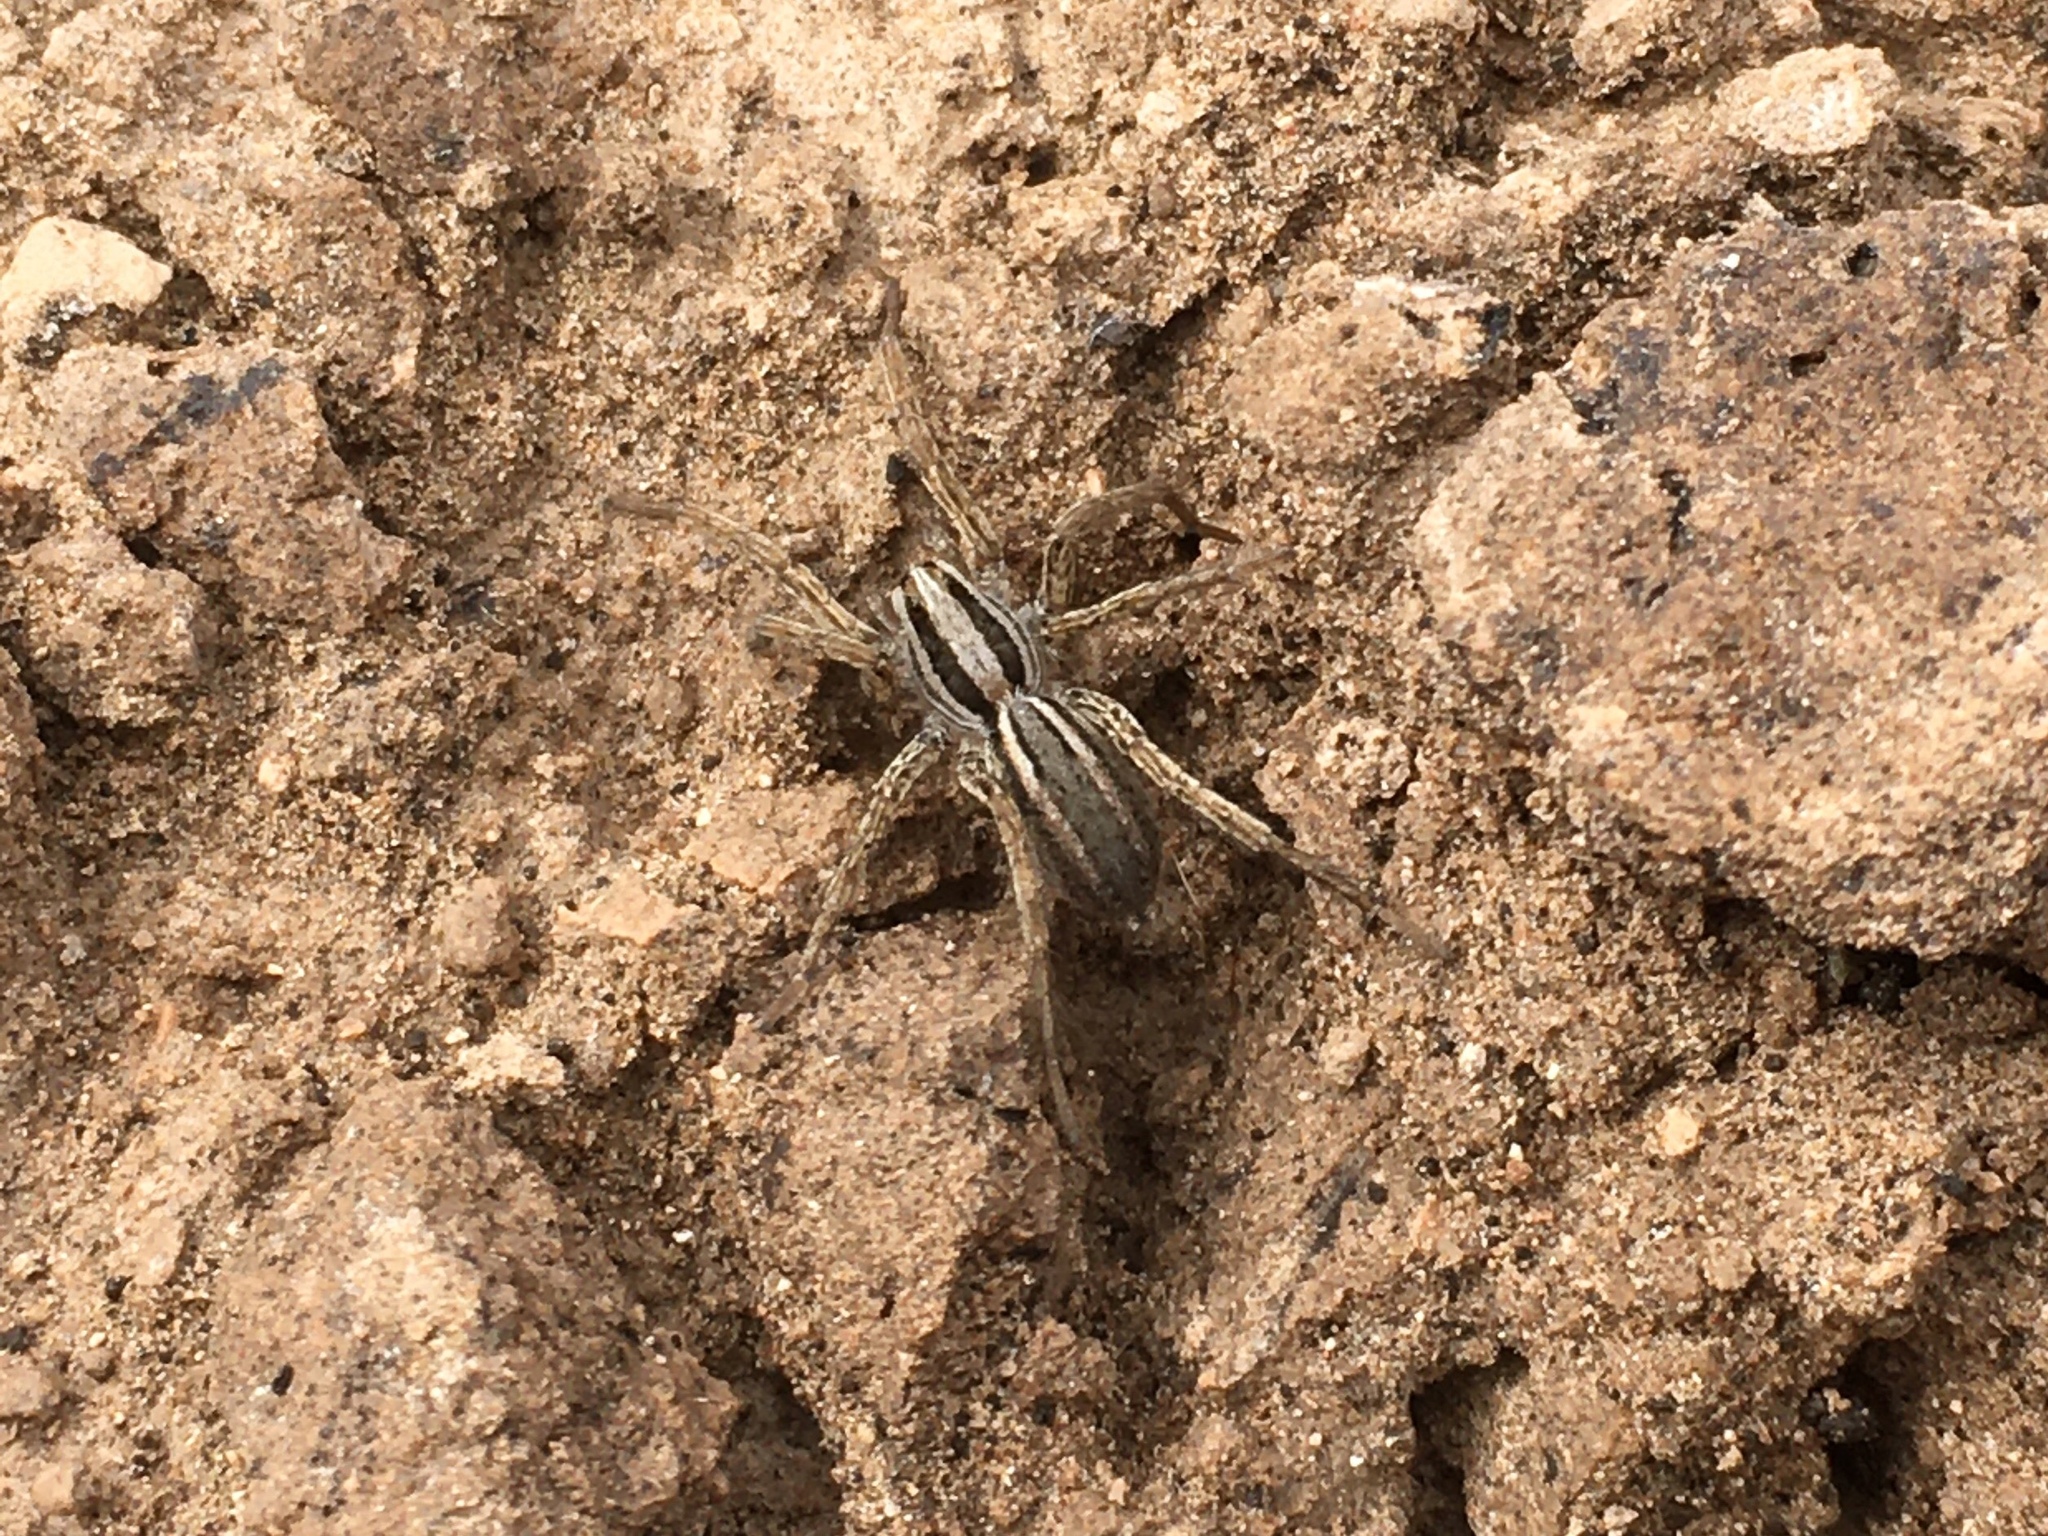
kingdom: Animalia
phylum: Arthropoda
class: Arachnida
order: Araneae
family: Lycosidae
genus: Hogna
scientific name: Hogna bivittata
